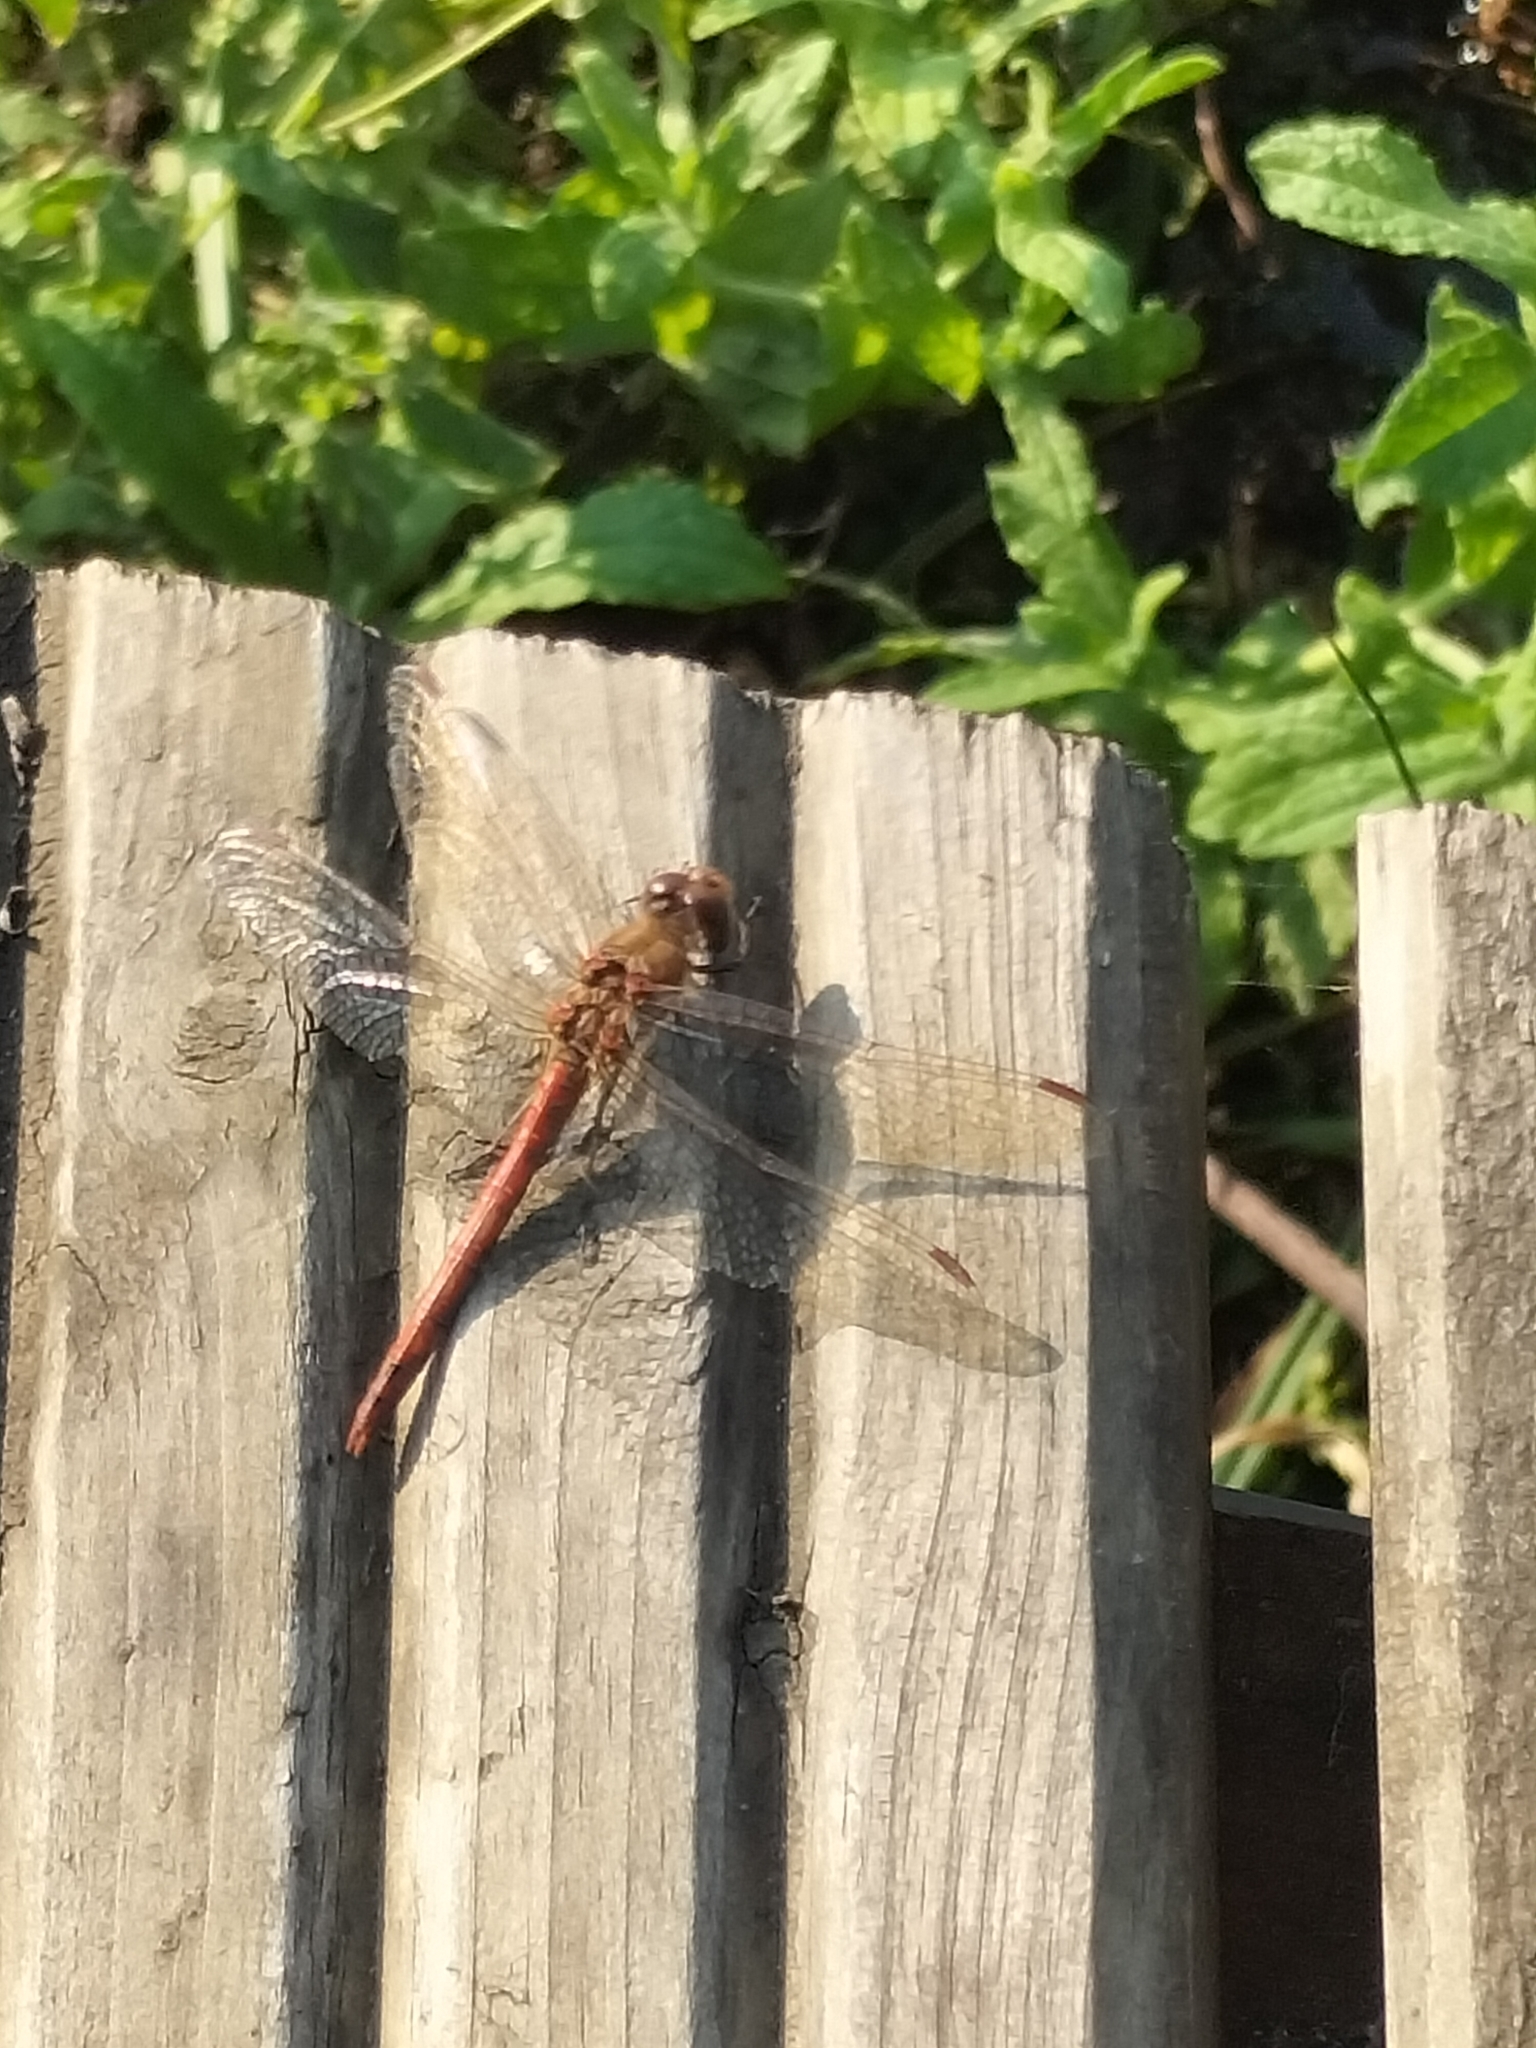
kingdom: Animalia
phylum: Arthropoda
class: Insecta
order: Odonata
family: Libellulidae
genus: Sympetrum
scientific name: Sympetrum striolatum
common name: Common darter
